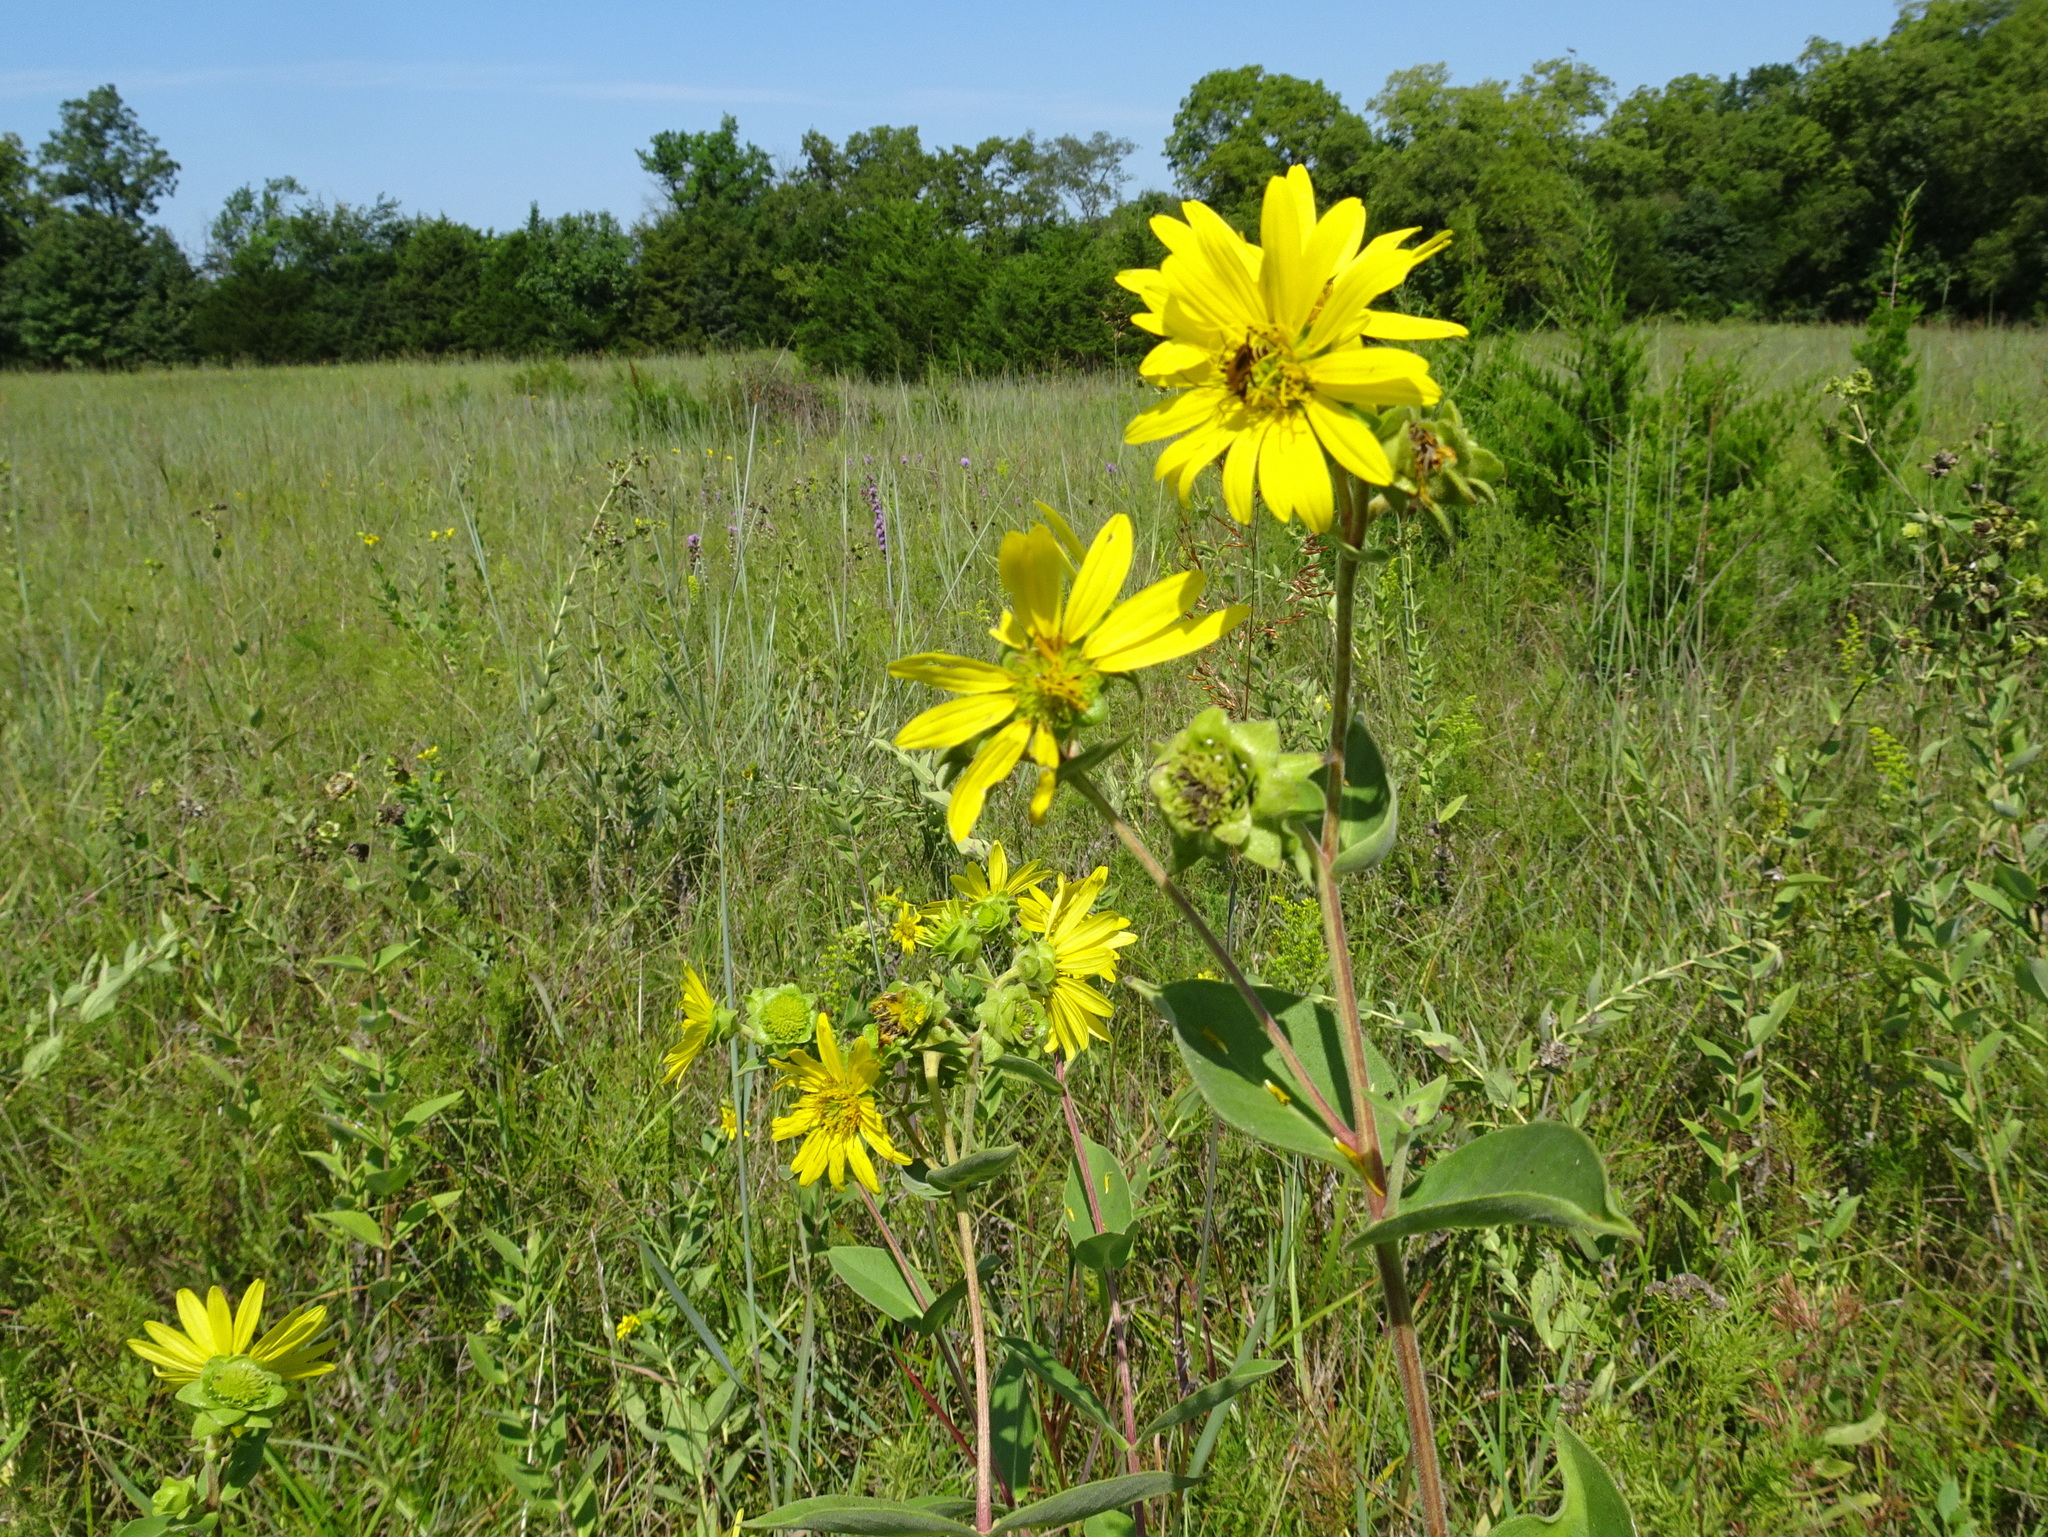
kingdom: Plantae
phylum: Tracheophyta
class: Magnoliopsida
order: Asterales
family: Asteraceae
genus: Silphium
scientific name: Silphium integrifolium
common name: Whole-leaf rosinweed
